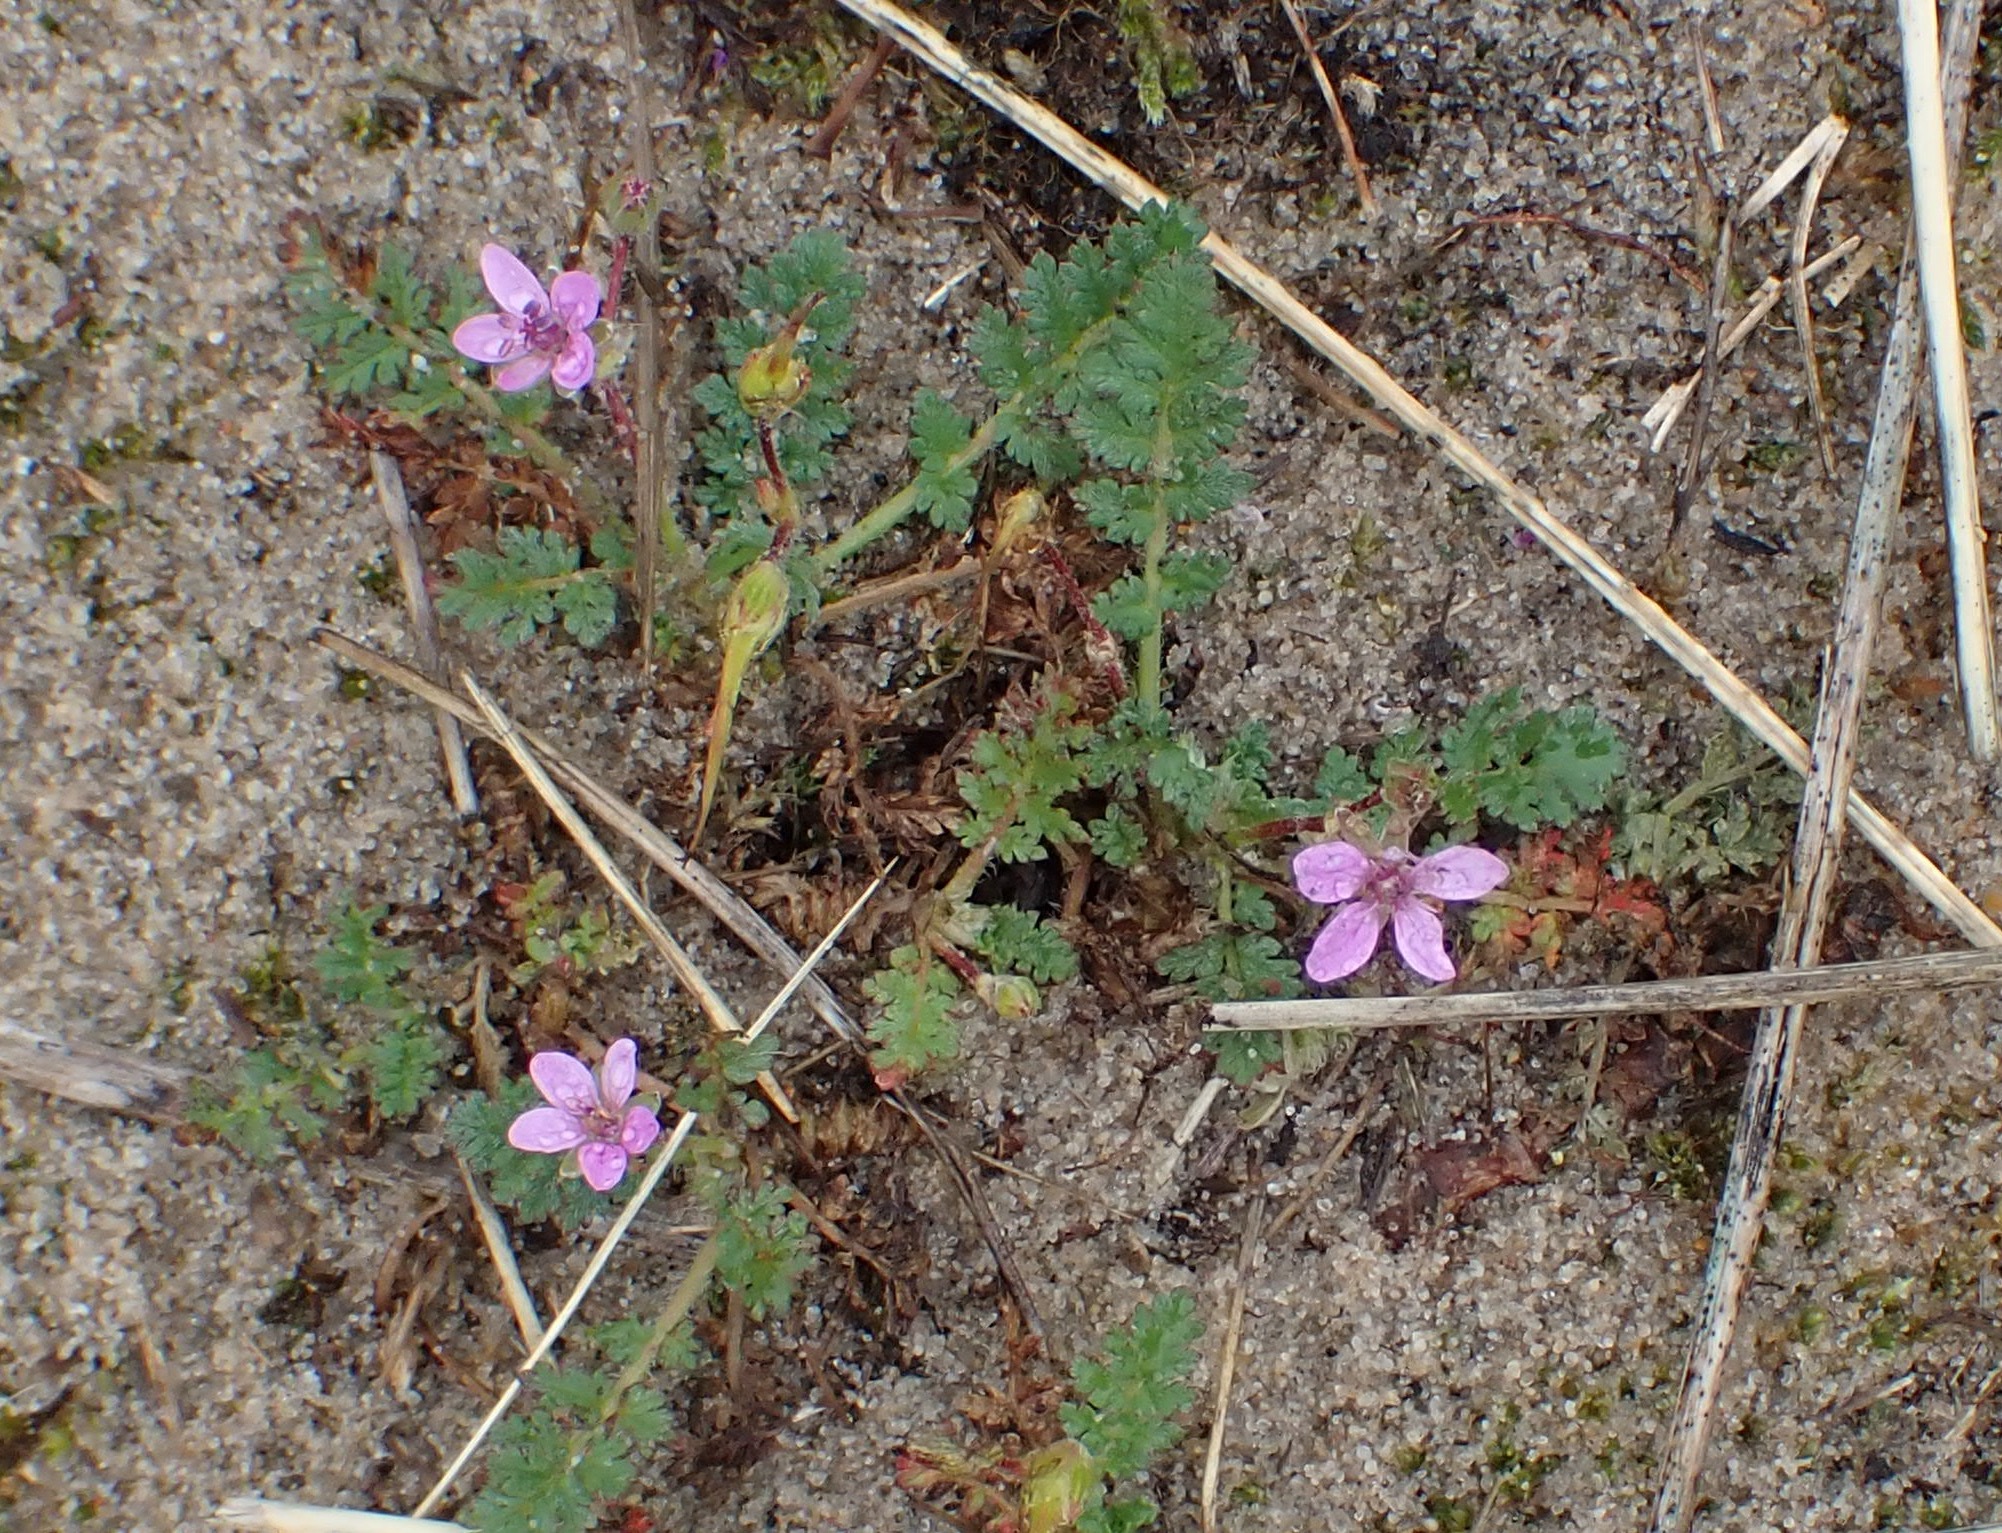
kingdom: Plantae
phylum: Tracheophyta
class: Magnoliopsida
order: Geraniales
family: Geraniaceae
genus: Erodium
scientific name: Erodium cicutarium
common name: Common stork's-bill
